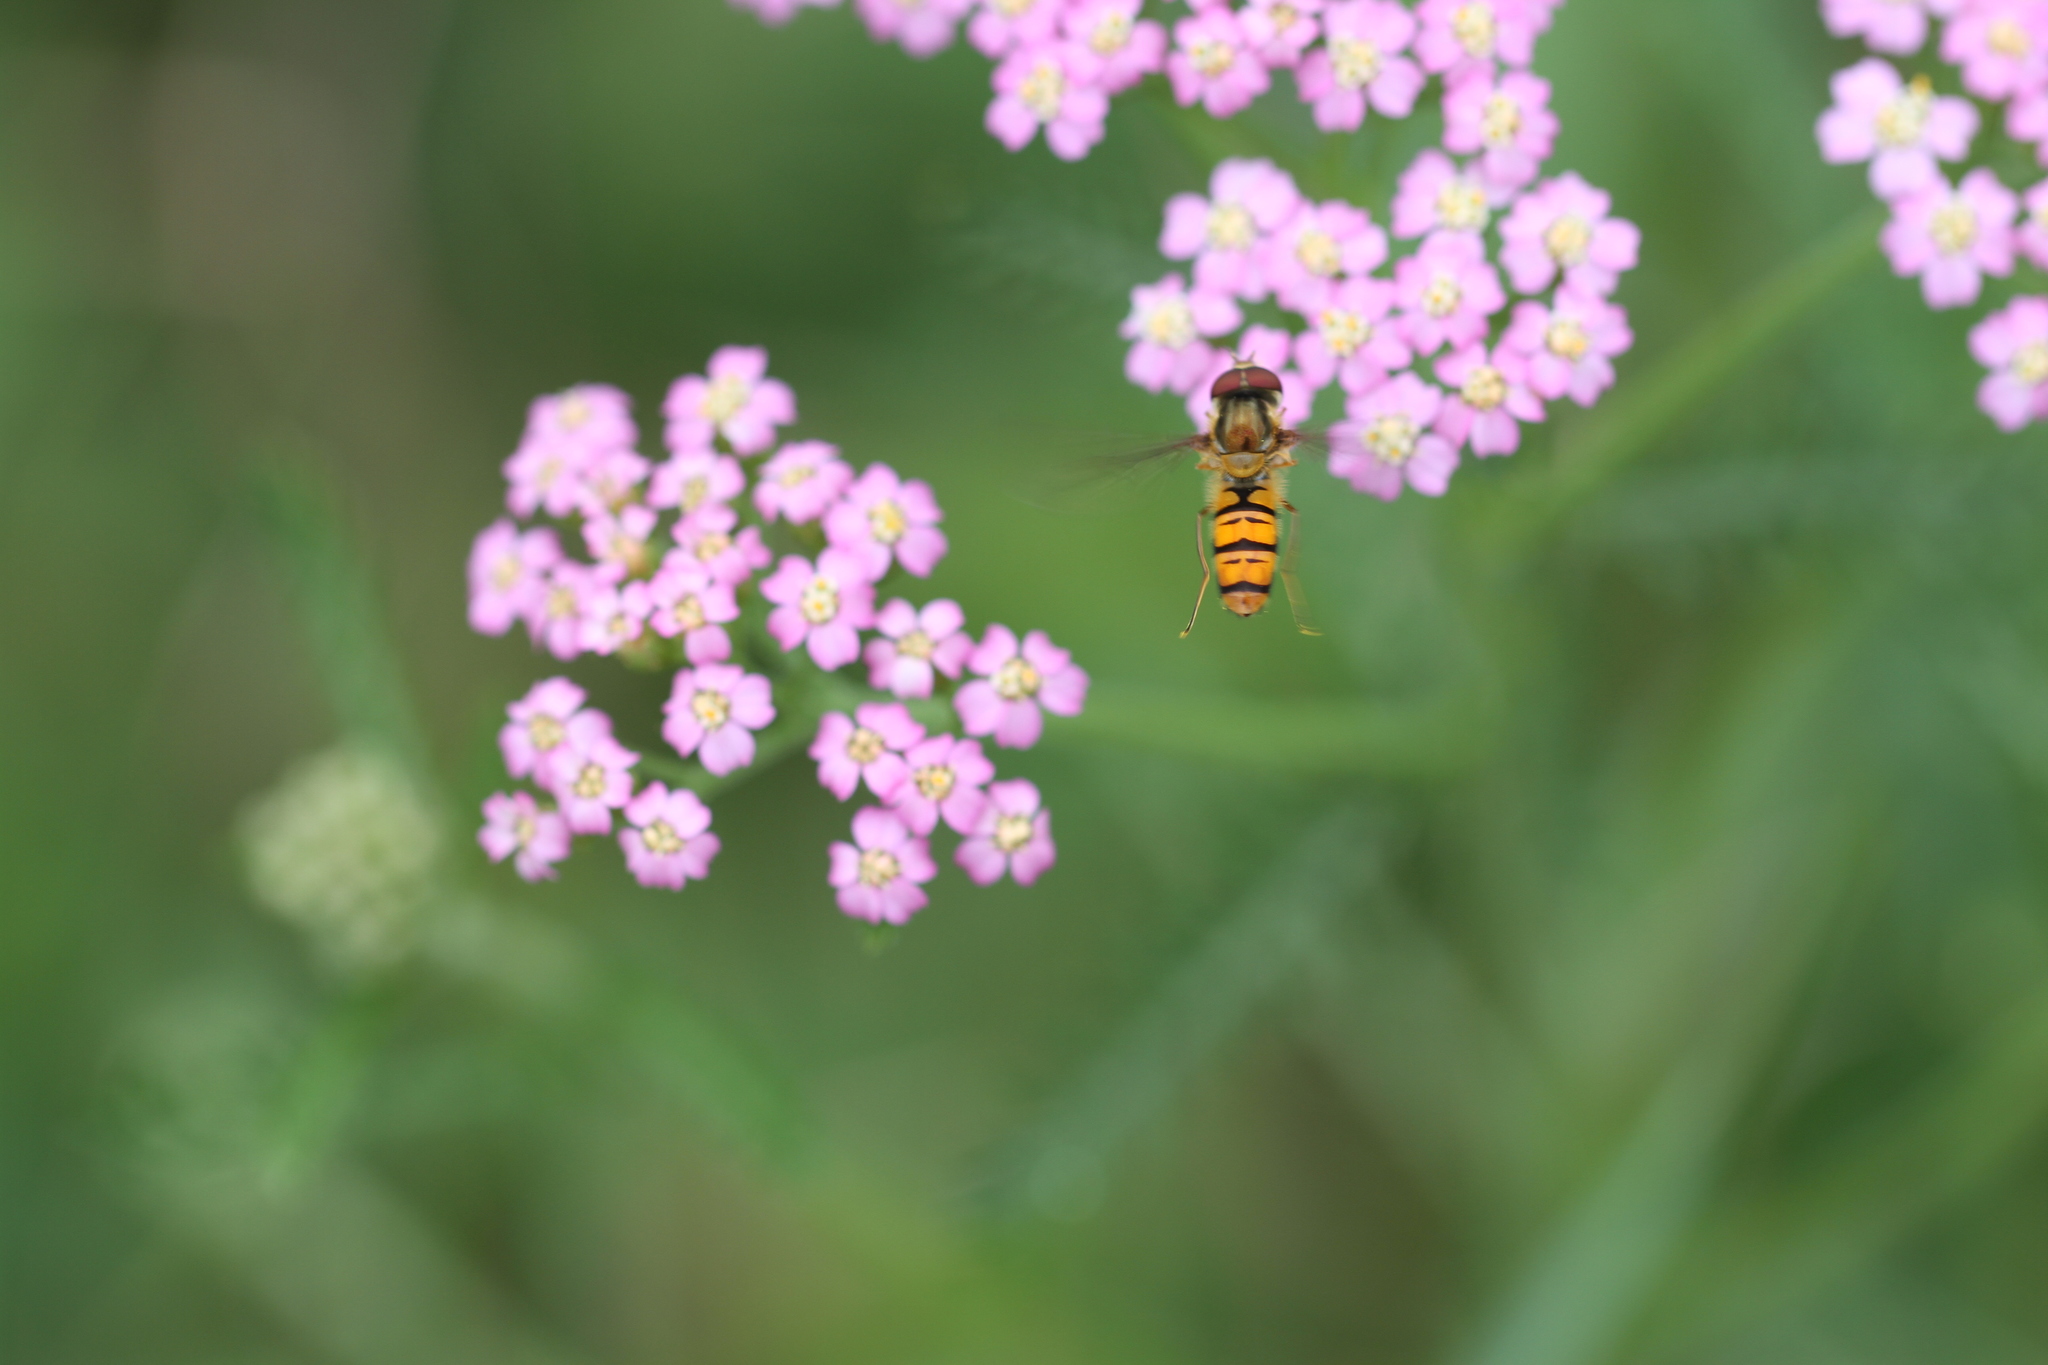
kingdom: Animalia
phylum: Arthropoda
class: Insecta
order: Diptera
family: Syrphidae
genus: Episyrphus
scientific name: Episyrphus balteatus
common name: Marmalade hoverfly
